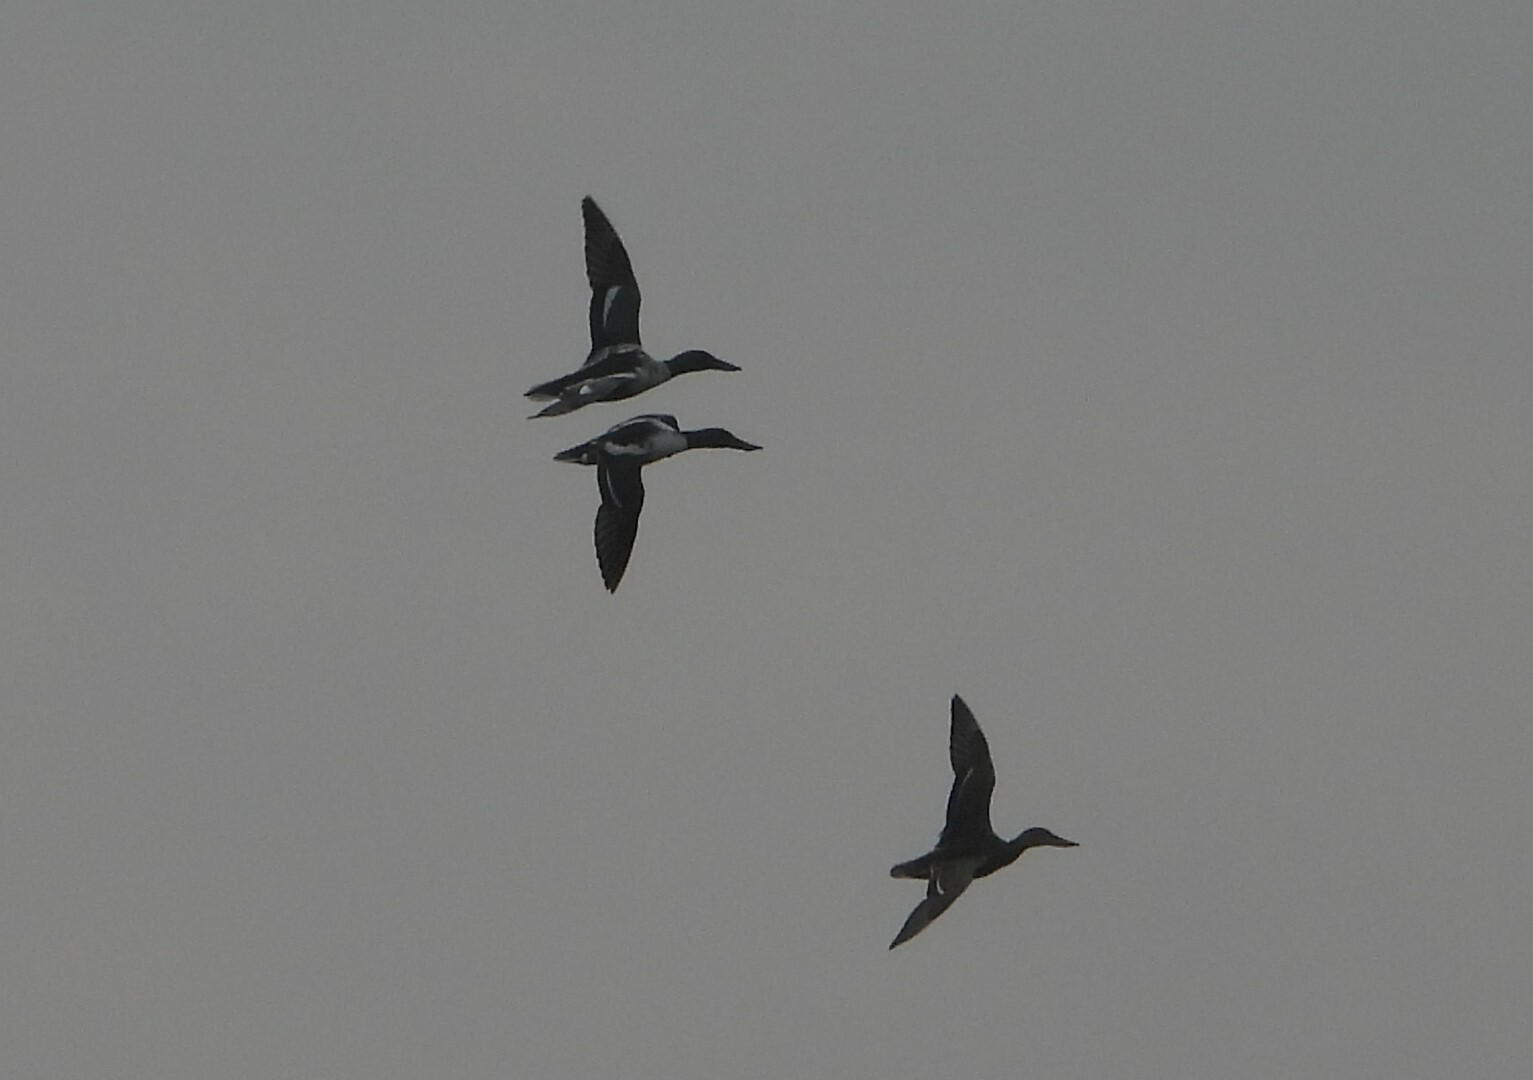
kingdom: Animalia
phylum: Chordata
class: Aves
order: Anseriformes
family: Anatidae
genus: Spatula
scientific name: Spatula clypeata
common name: Northern shoveler
